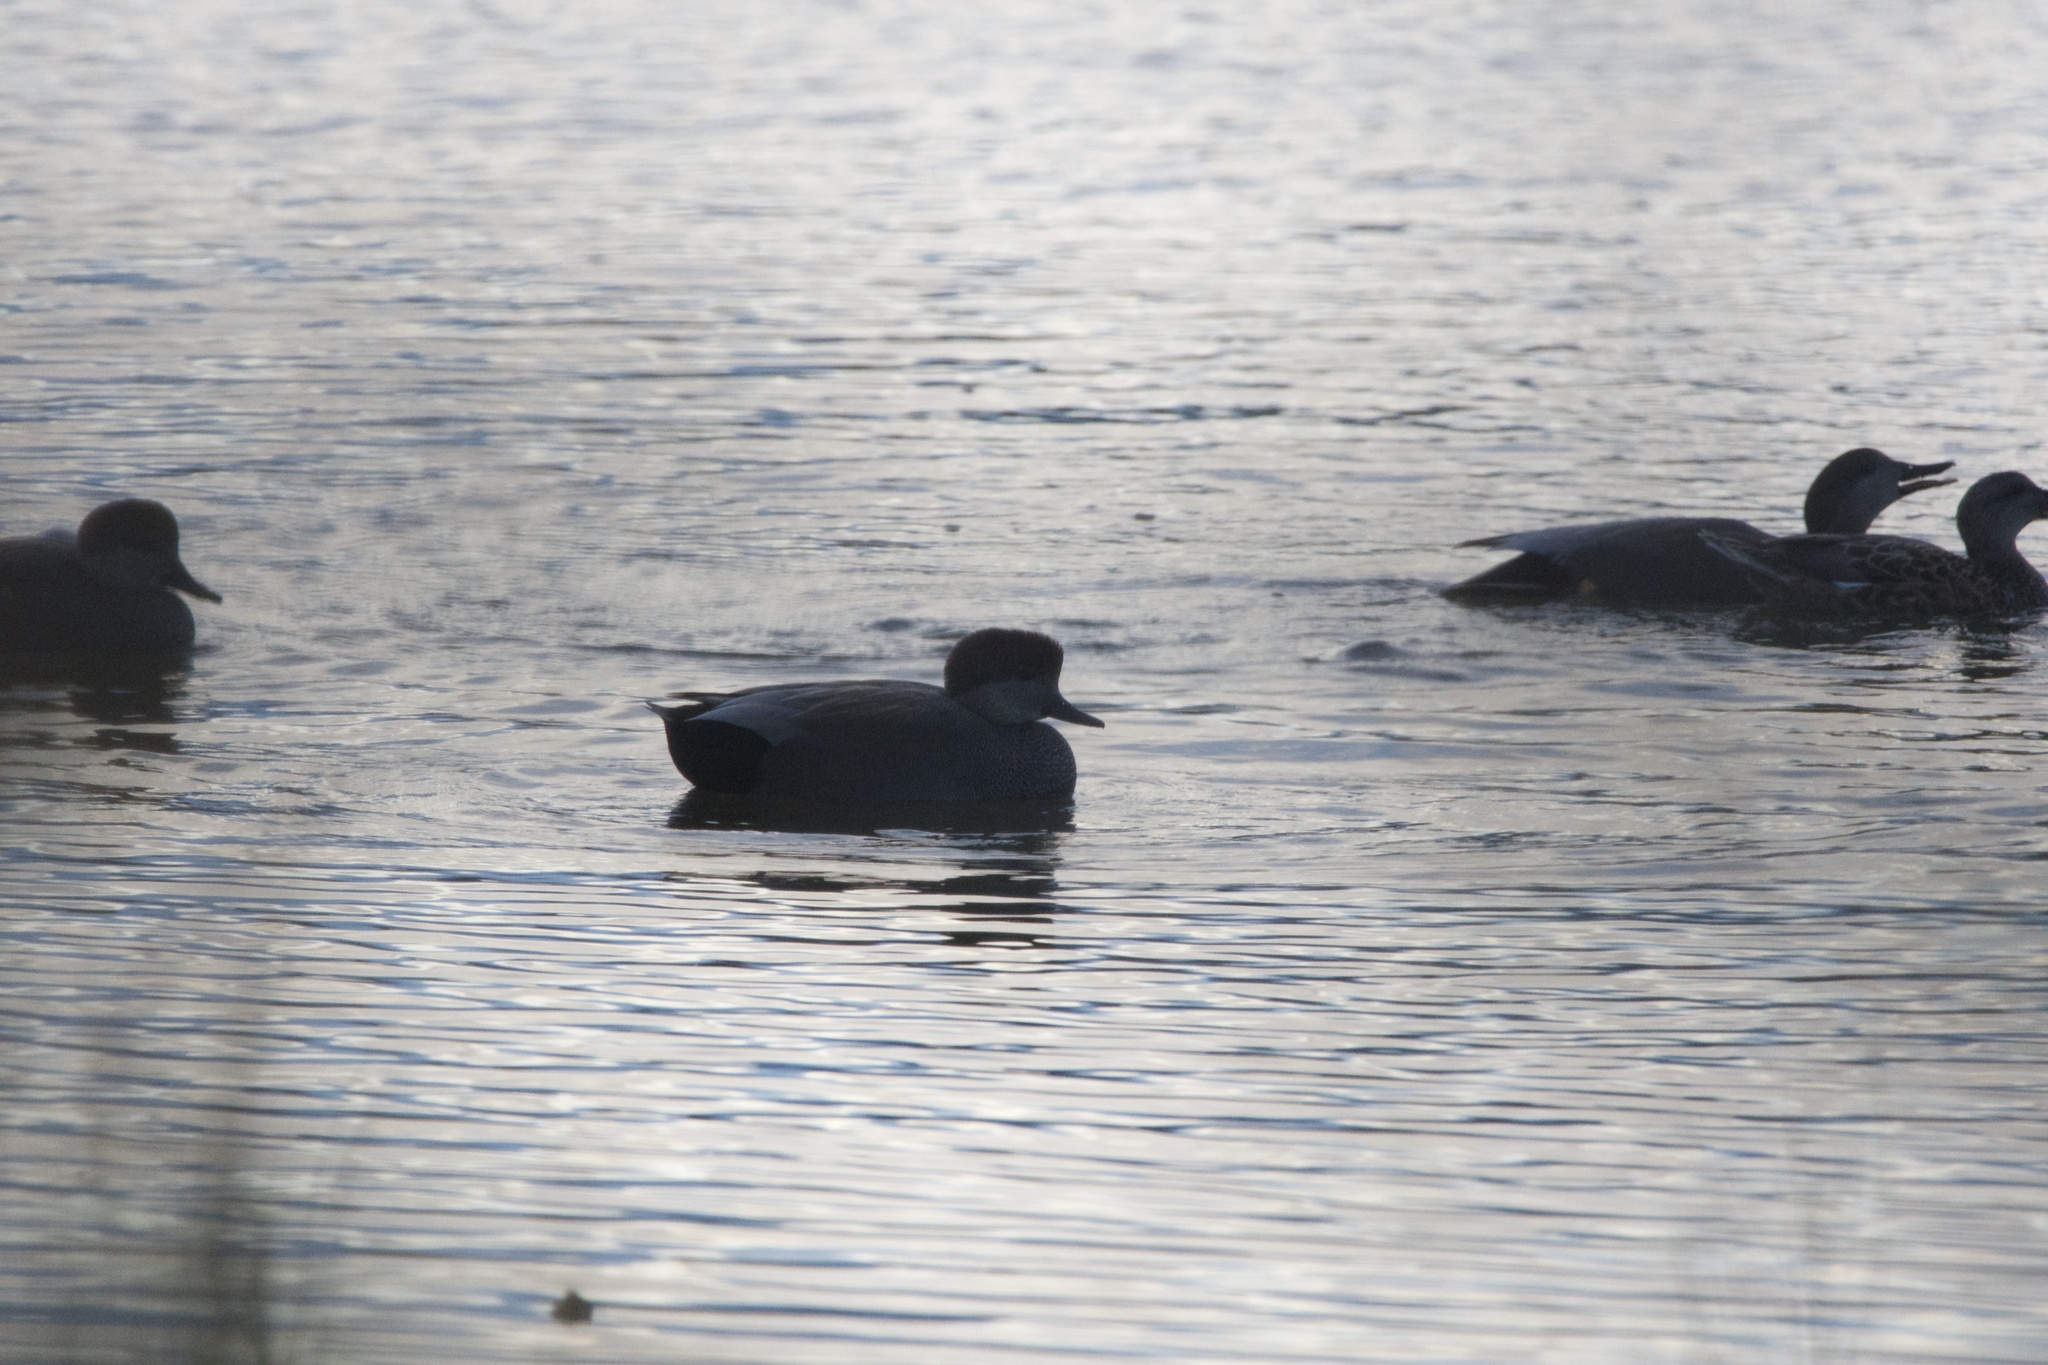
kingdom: Animalia
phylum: Chordata
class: Aves
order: Anseriformes
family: Anatidae
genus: Mareca
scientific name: Mareca strepera
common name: Gadwall
